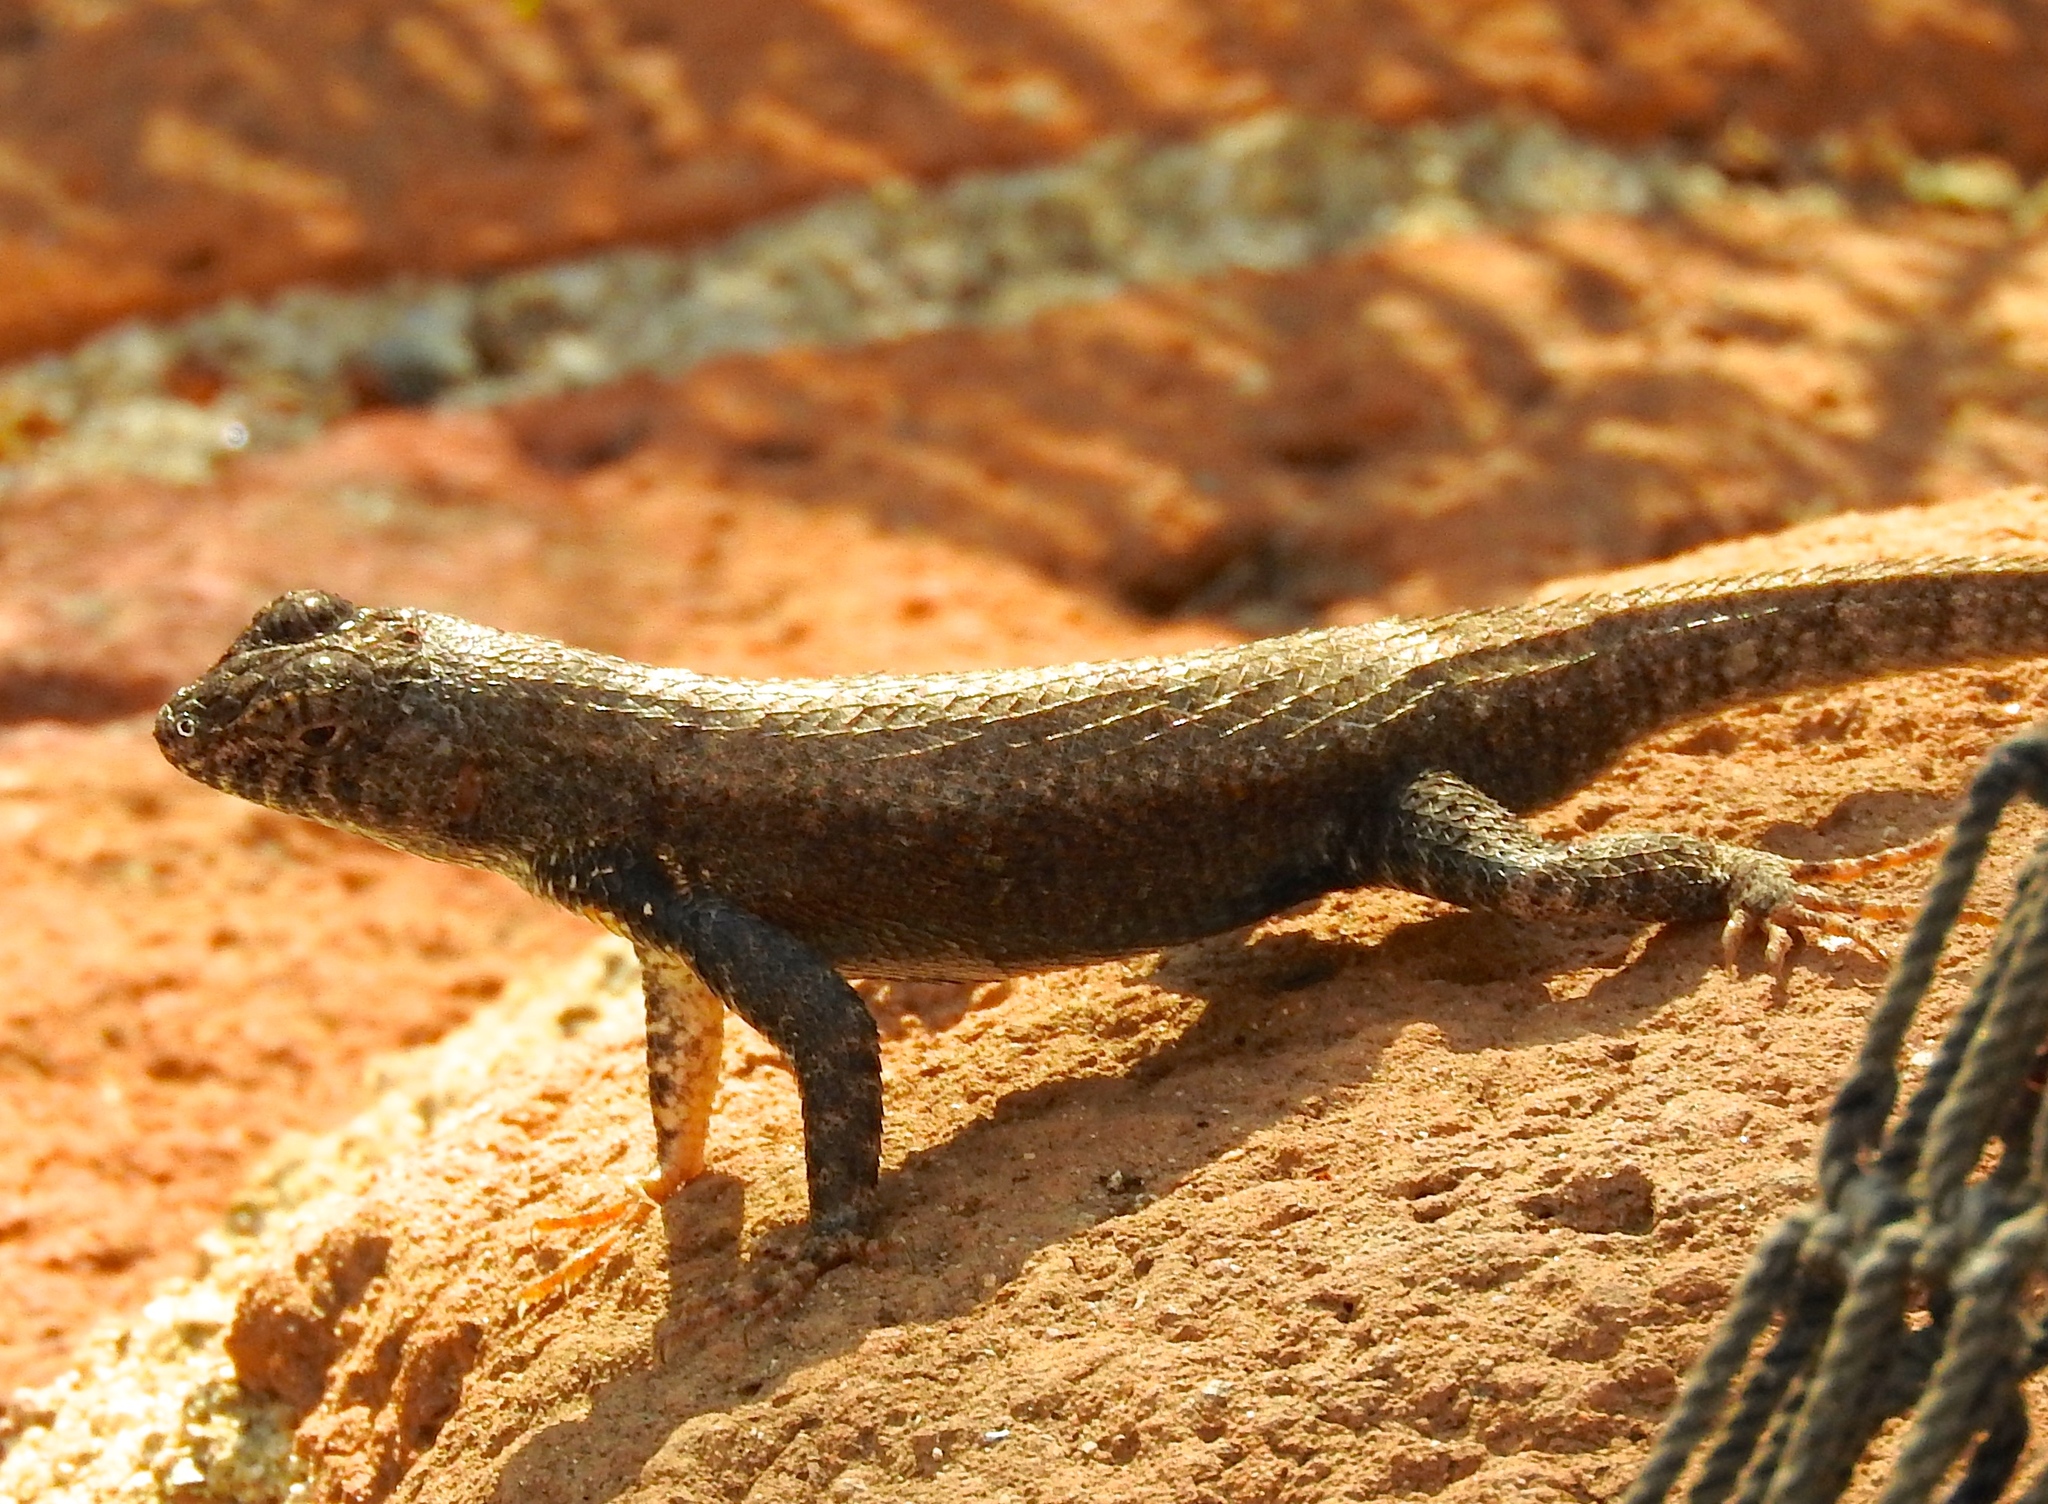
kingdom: Animalia
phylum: Chordata
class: Squamata
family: Phrynosomatidae
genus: Sceloporus
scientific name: Sceloporus nelsoni
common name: Nelson's spiny lizard
